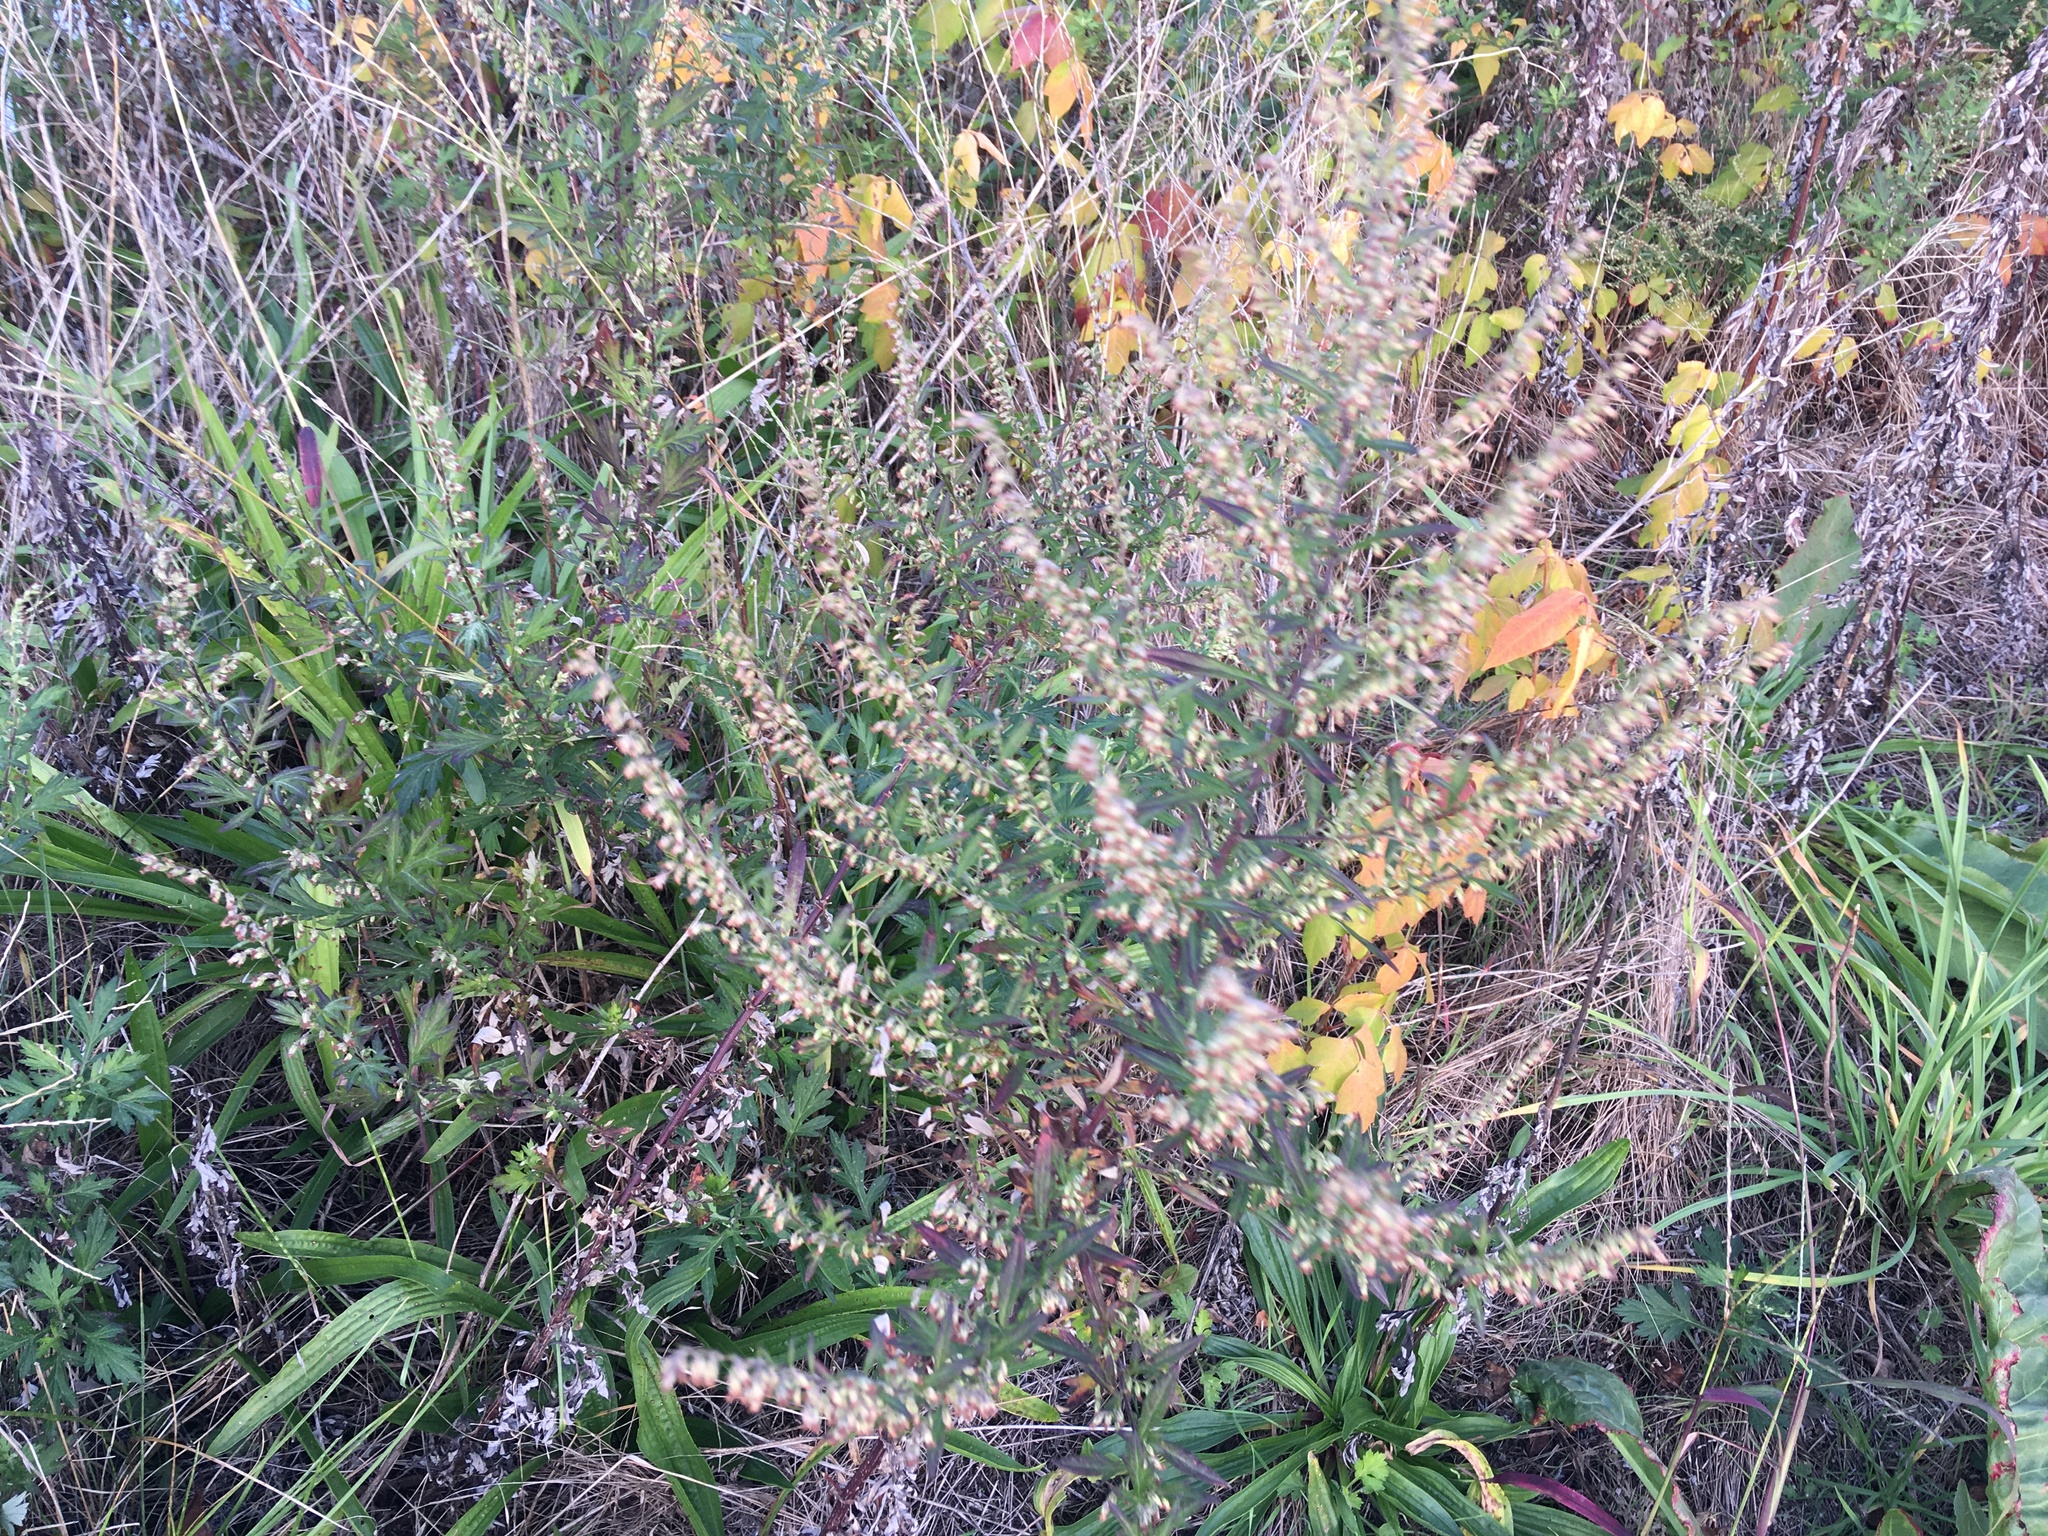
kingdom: Plantae
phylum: Tracheophyta
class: Magnoliopsida
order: Asterales
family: Asteraceae
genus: Artemisia
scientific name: Artemisia vulgaris
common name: Mugwort
